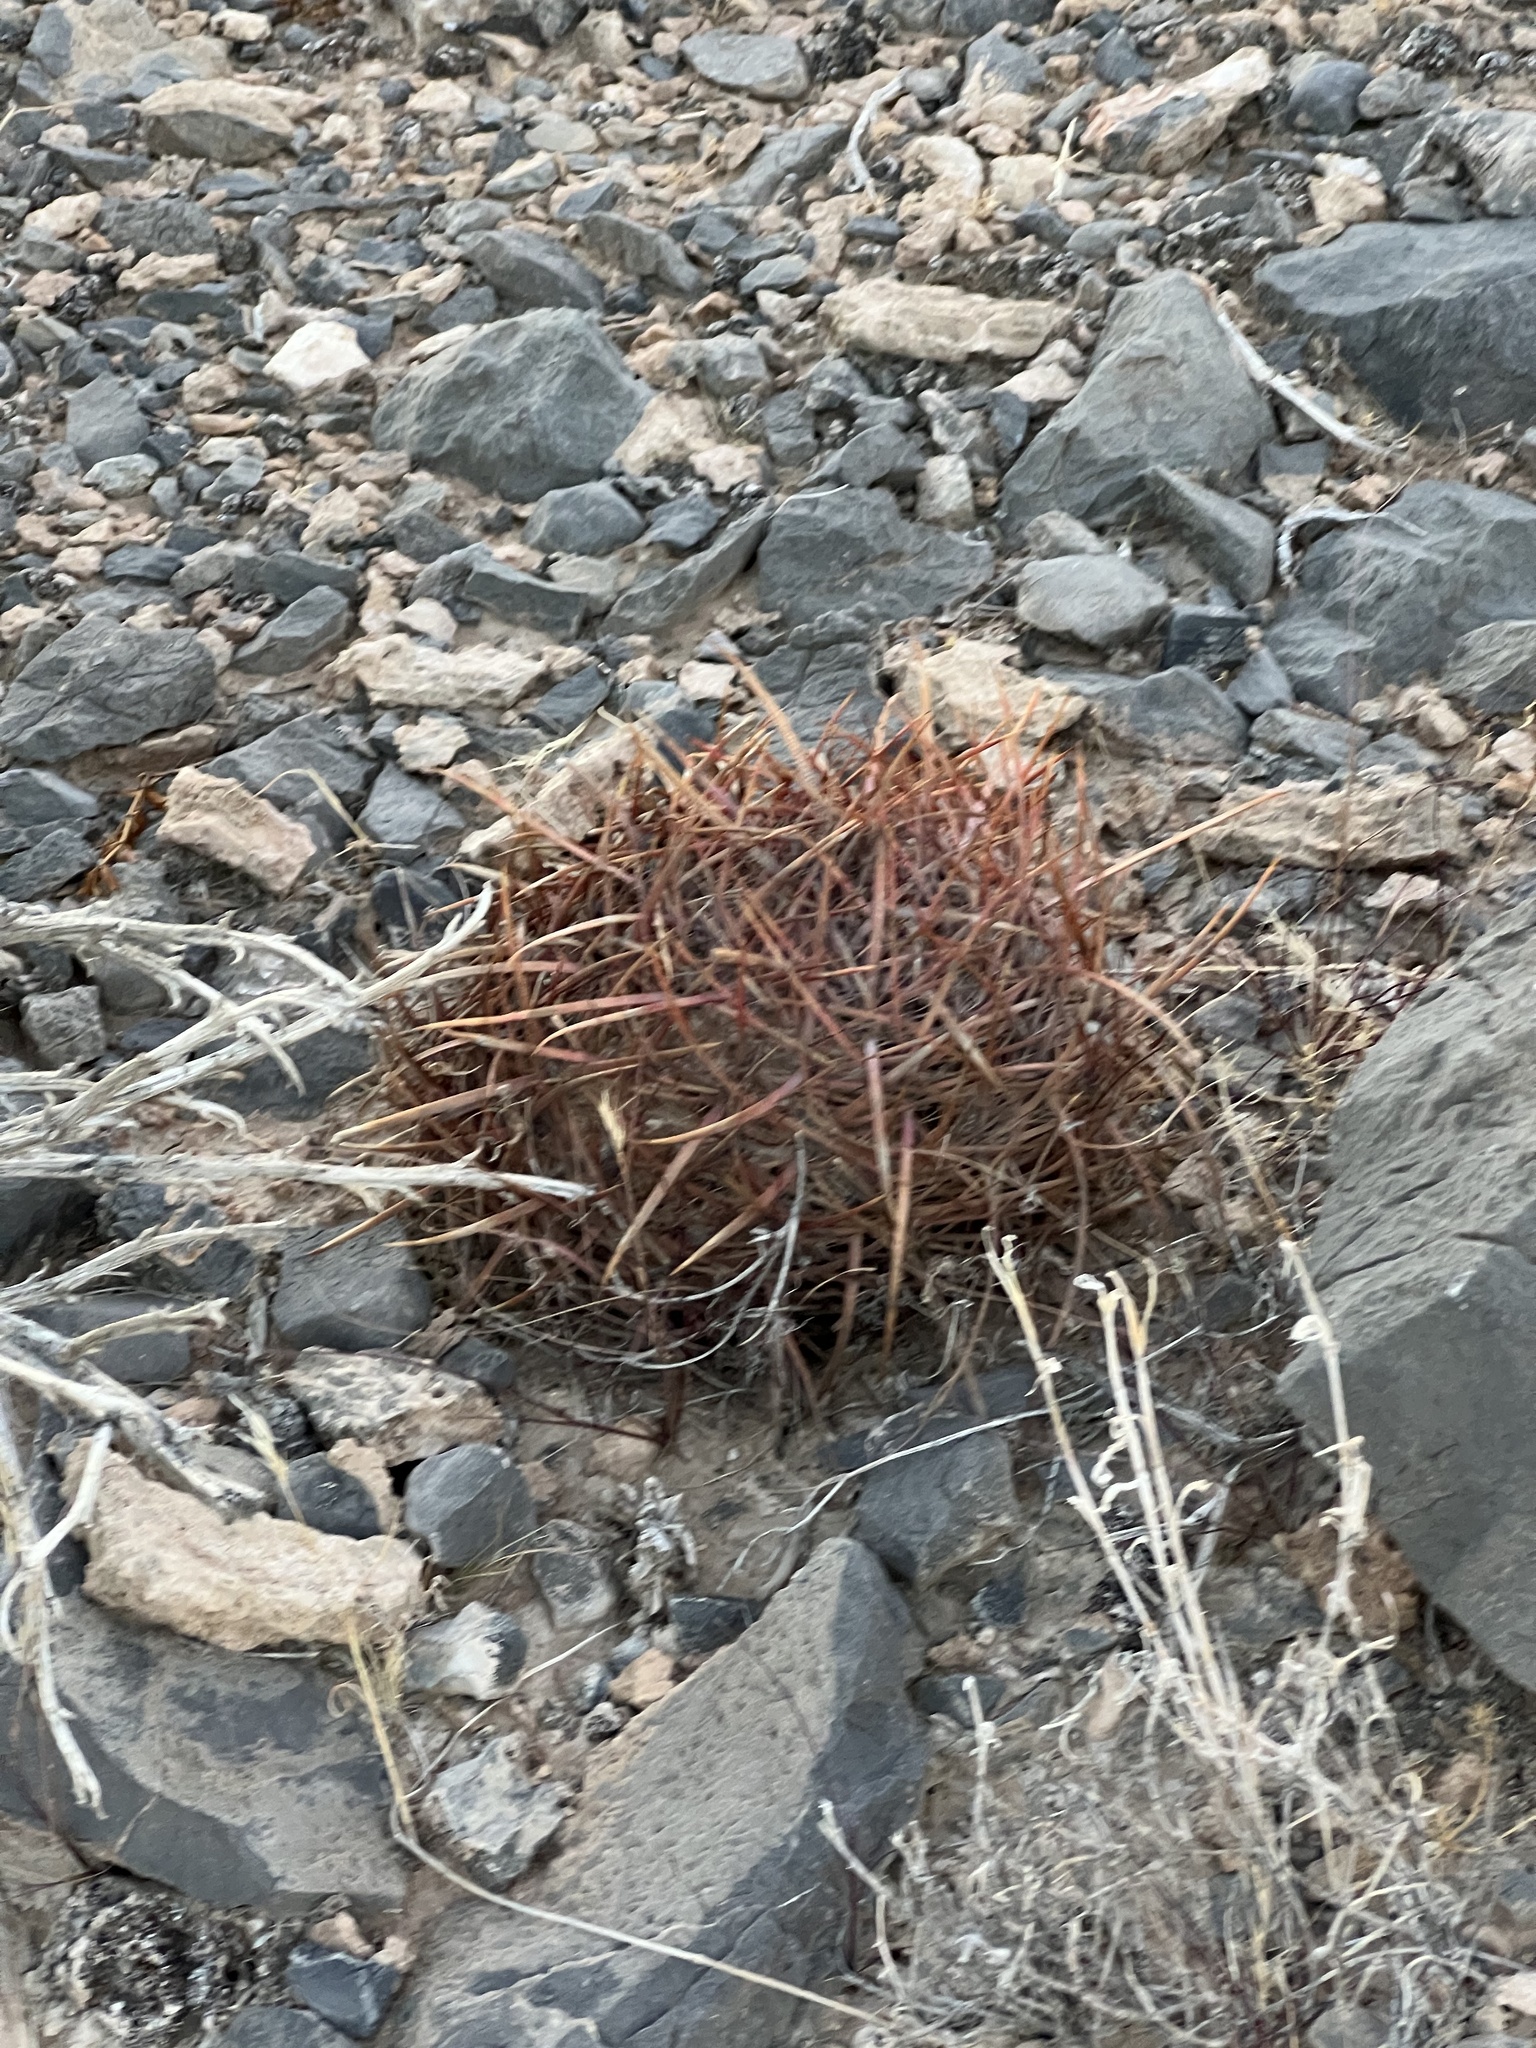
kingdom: Plantae
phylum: Tracheophyta
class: Magnoliopsida
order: Caryophyllales
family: Cactaceae
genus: Ferocactus
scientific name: Ferocactus cylindraceus
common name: California barrel cactus
